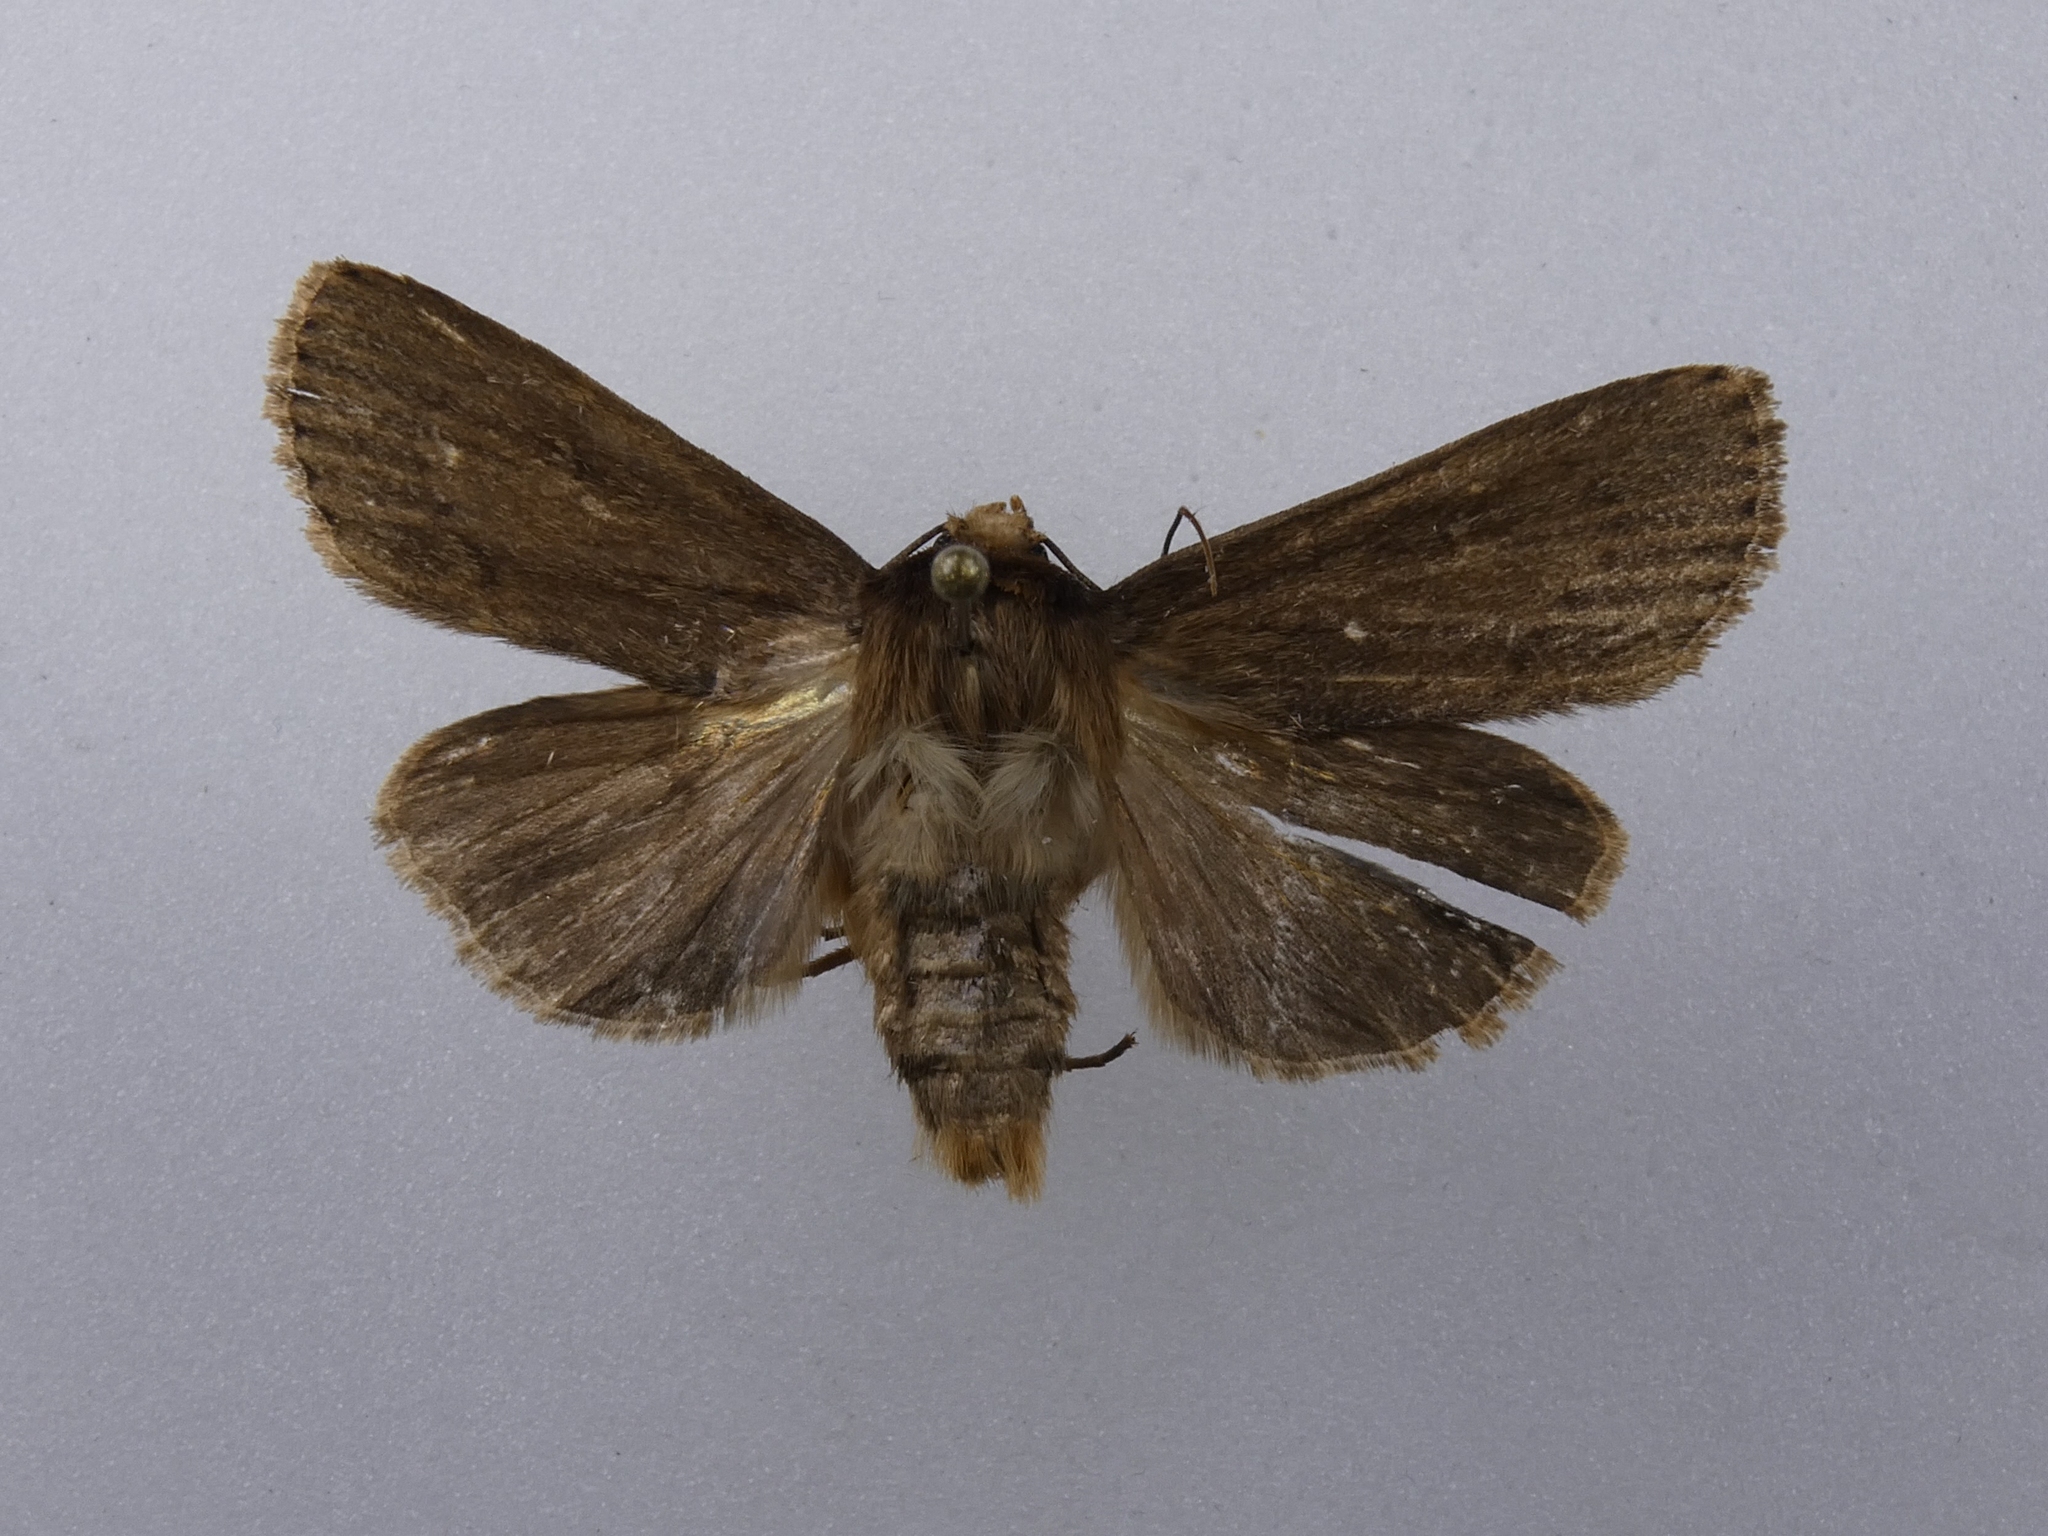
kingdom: Animalia
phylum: Arthropoda
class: Insecta
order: Lepidoptera
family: Noctuidae
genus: Bityla
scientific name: Bityla defigurata
